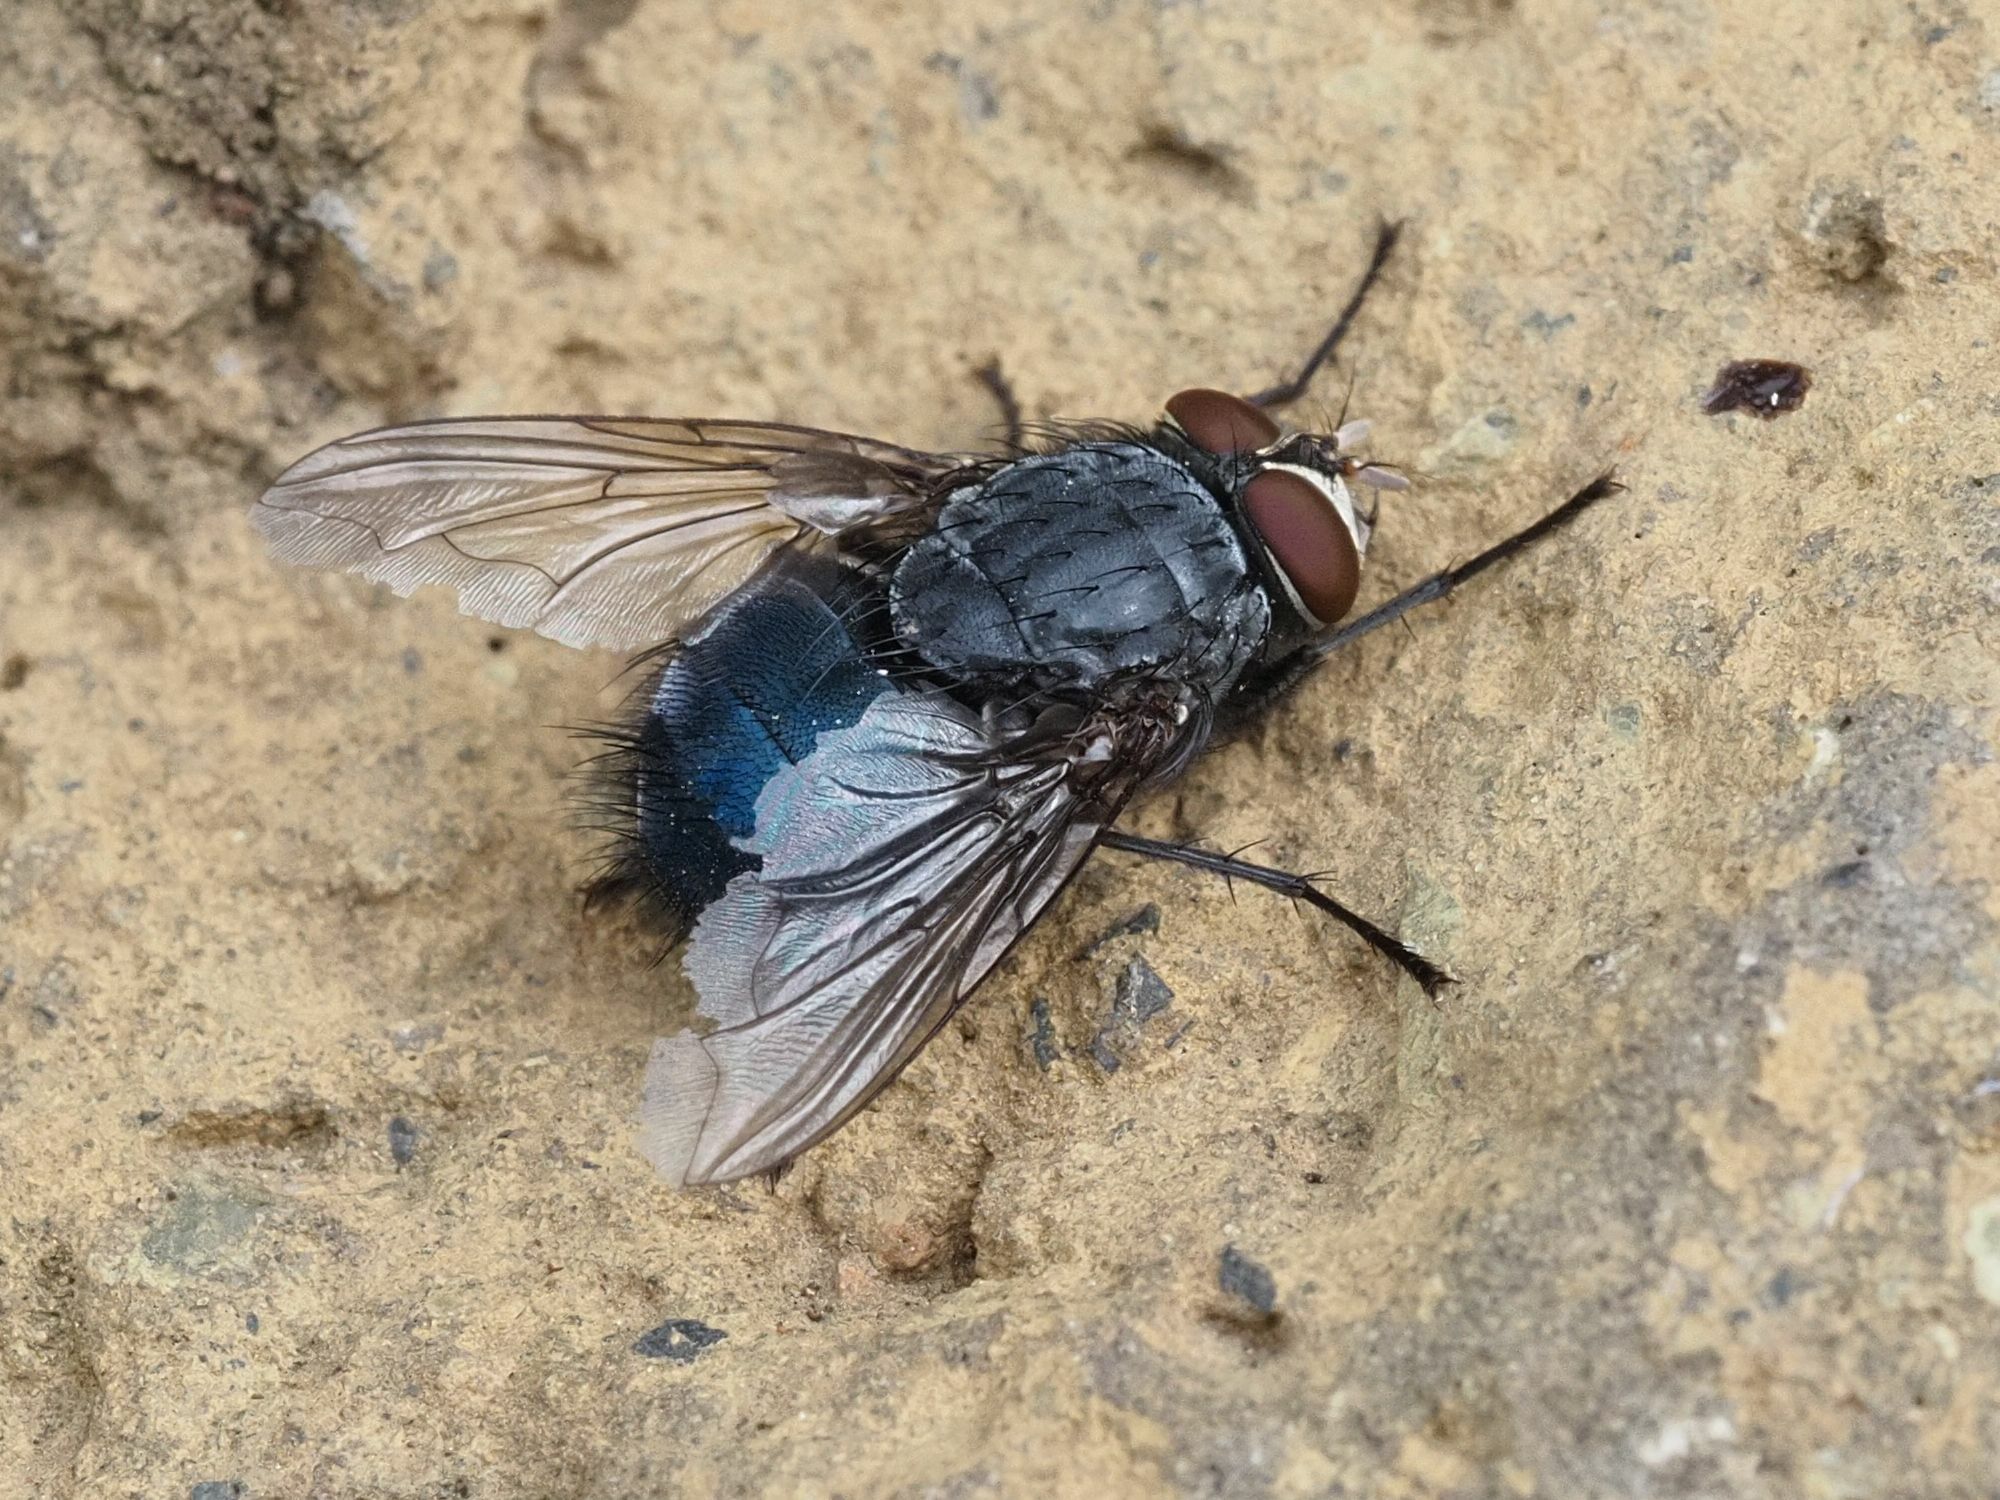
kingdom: Animalia
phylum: Arthropoda
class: Insecta
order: Diptera
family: Calliphoridae
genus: Calliphora
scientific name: Calliphora vicina
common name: Common blow flie
